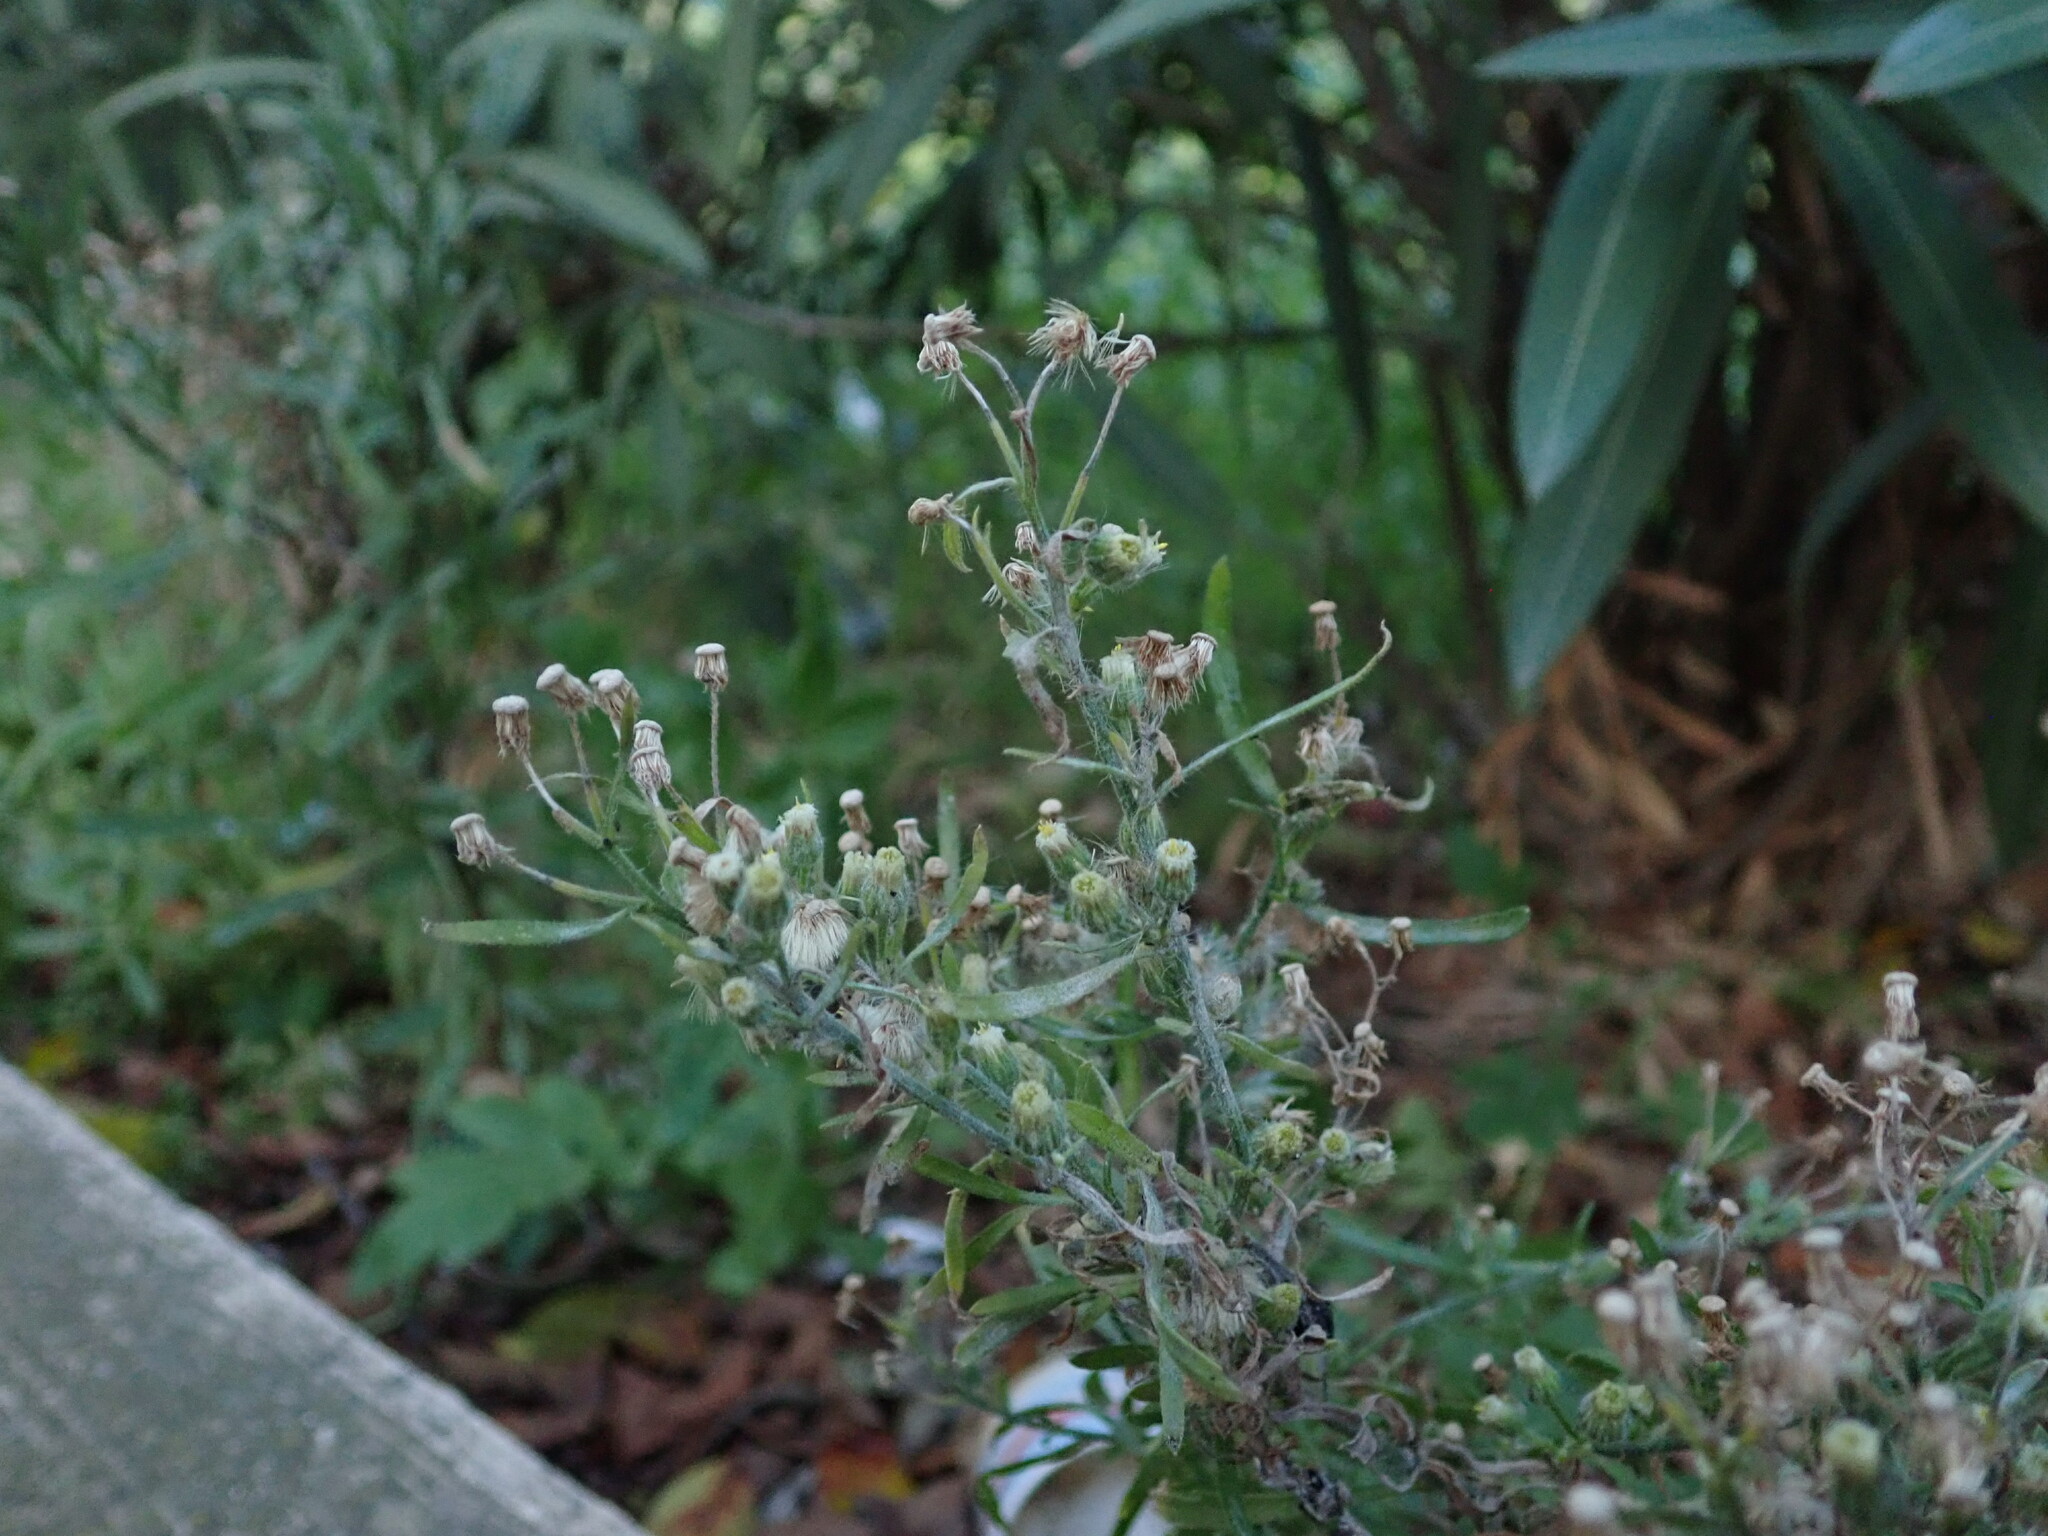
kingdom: Plantae
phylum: Tracheophyta
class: Magnoliopsida
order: Asterales
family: Asteraceae
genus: Erigeron
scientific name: Erigeron bonariensis
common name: Argentine fleabane
